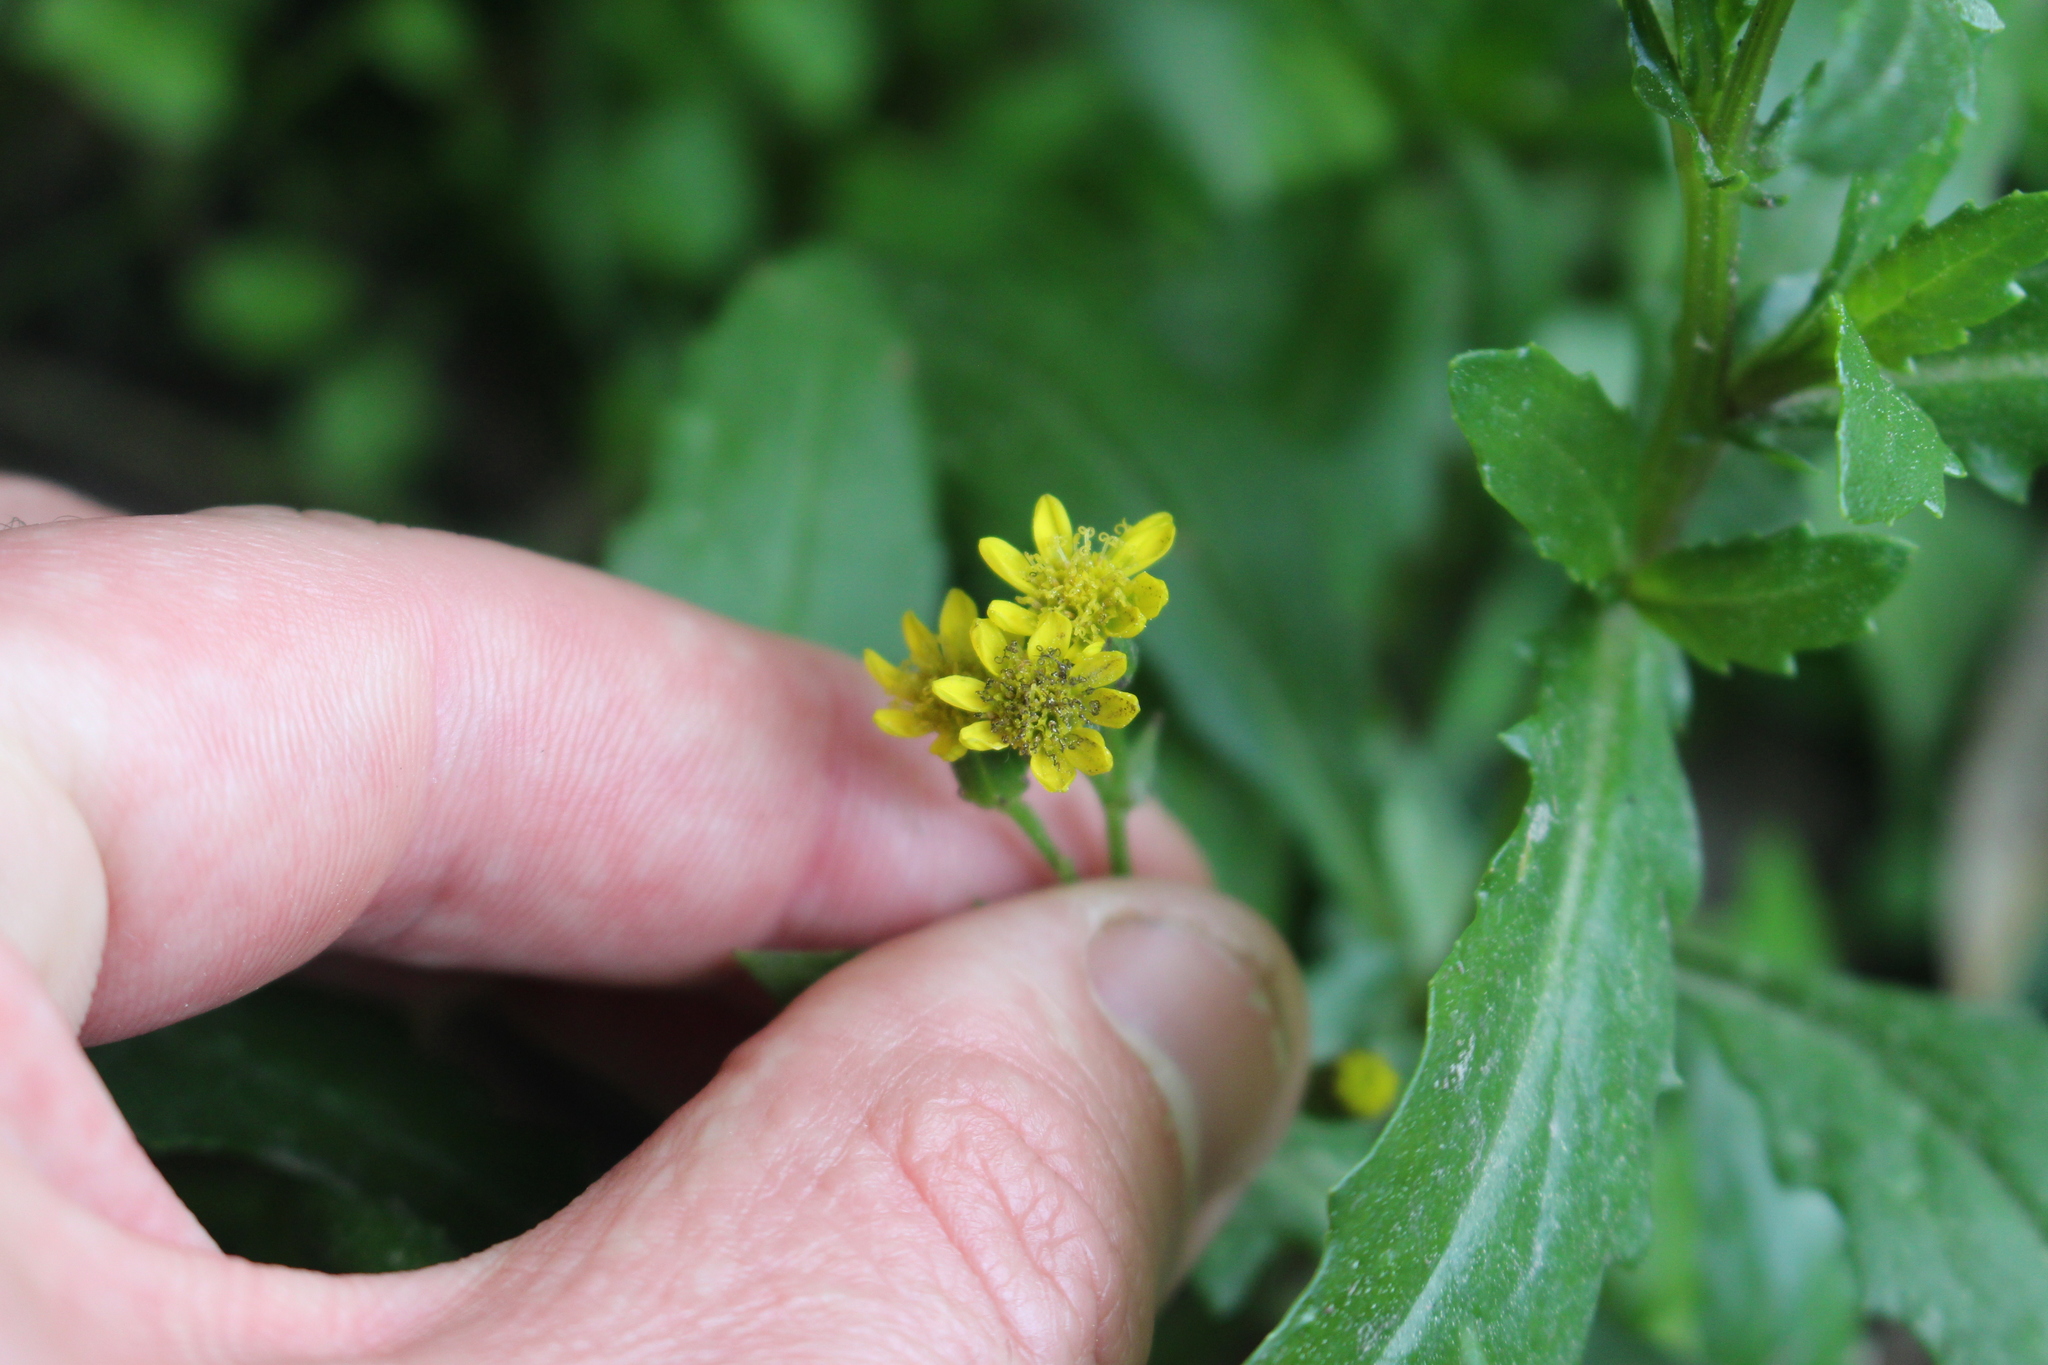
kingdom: Plantae
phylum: Tracheophyta
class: Magnoliopsida
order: Asterales
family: Asteraceae
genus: Senecio
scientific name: Senecio matatini
